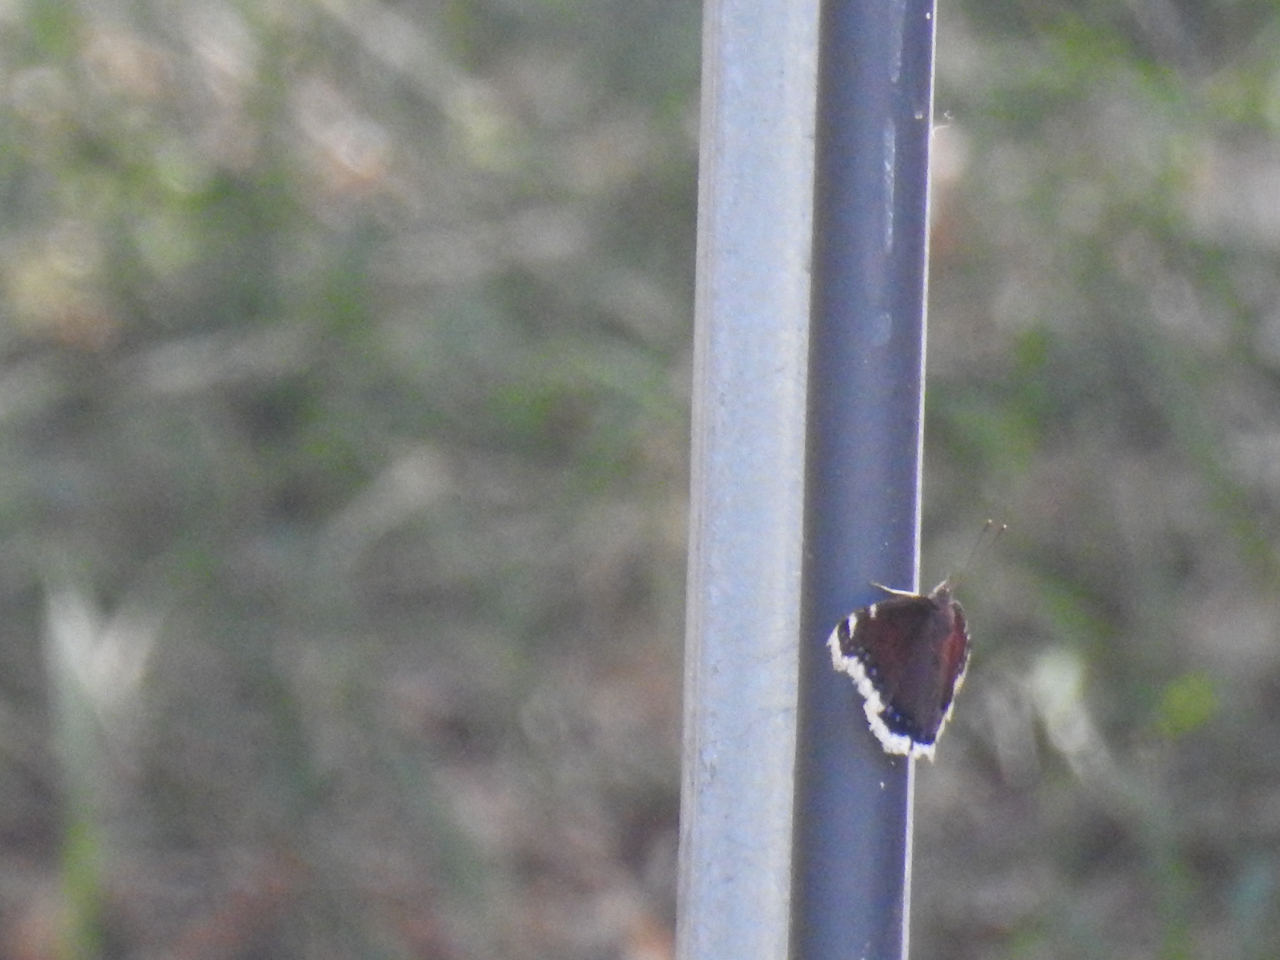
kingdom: Animalia
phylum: Arthropoda
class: Insecta
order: Lepidoptera
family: Nymphalidae
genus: Nymphalis
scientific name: Nymphalis antiopa
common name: Camberwell beauty
